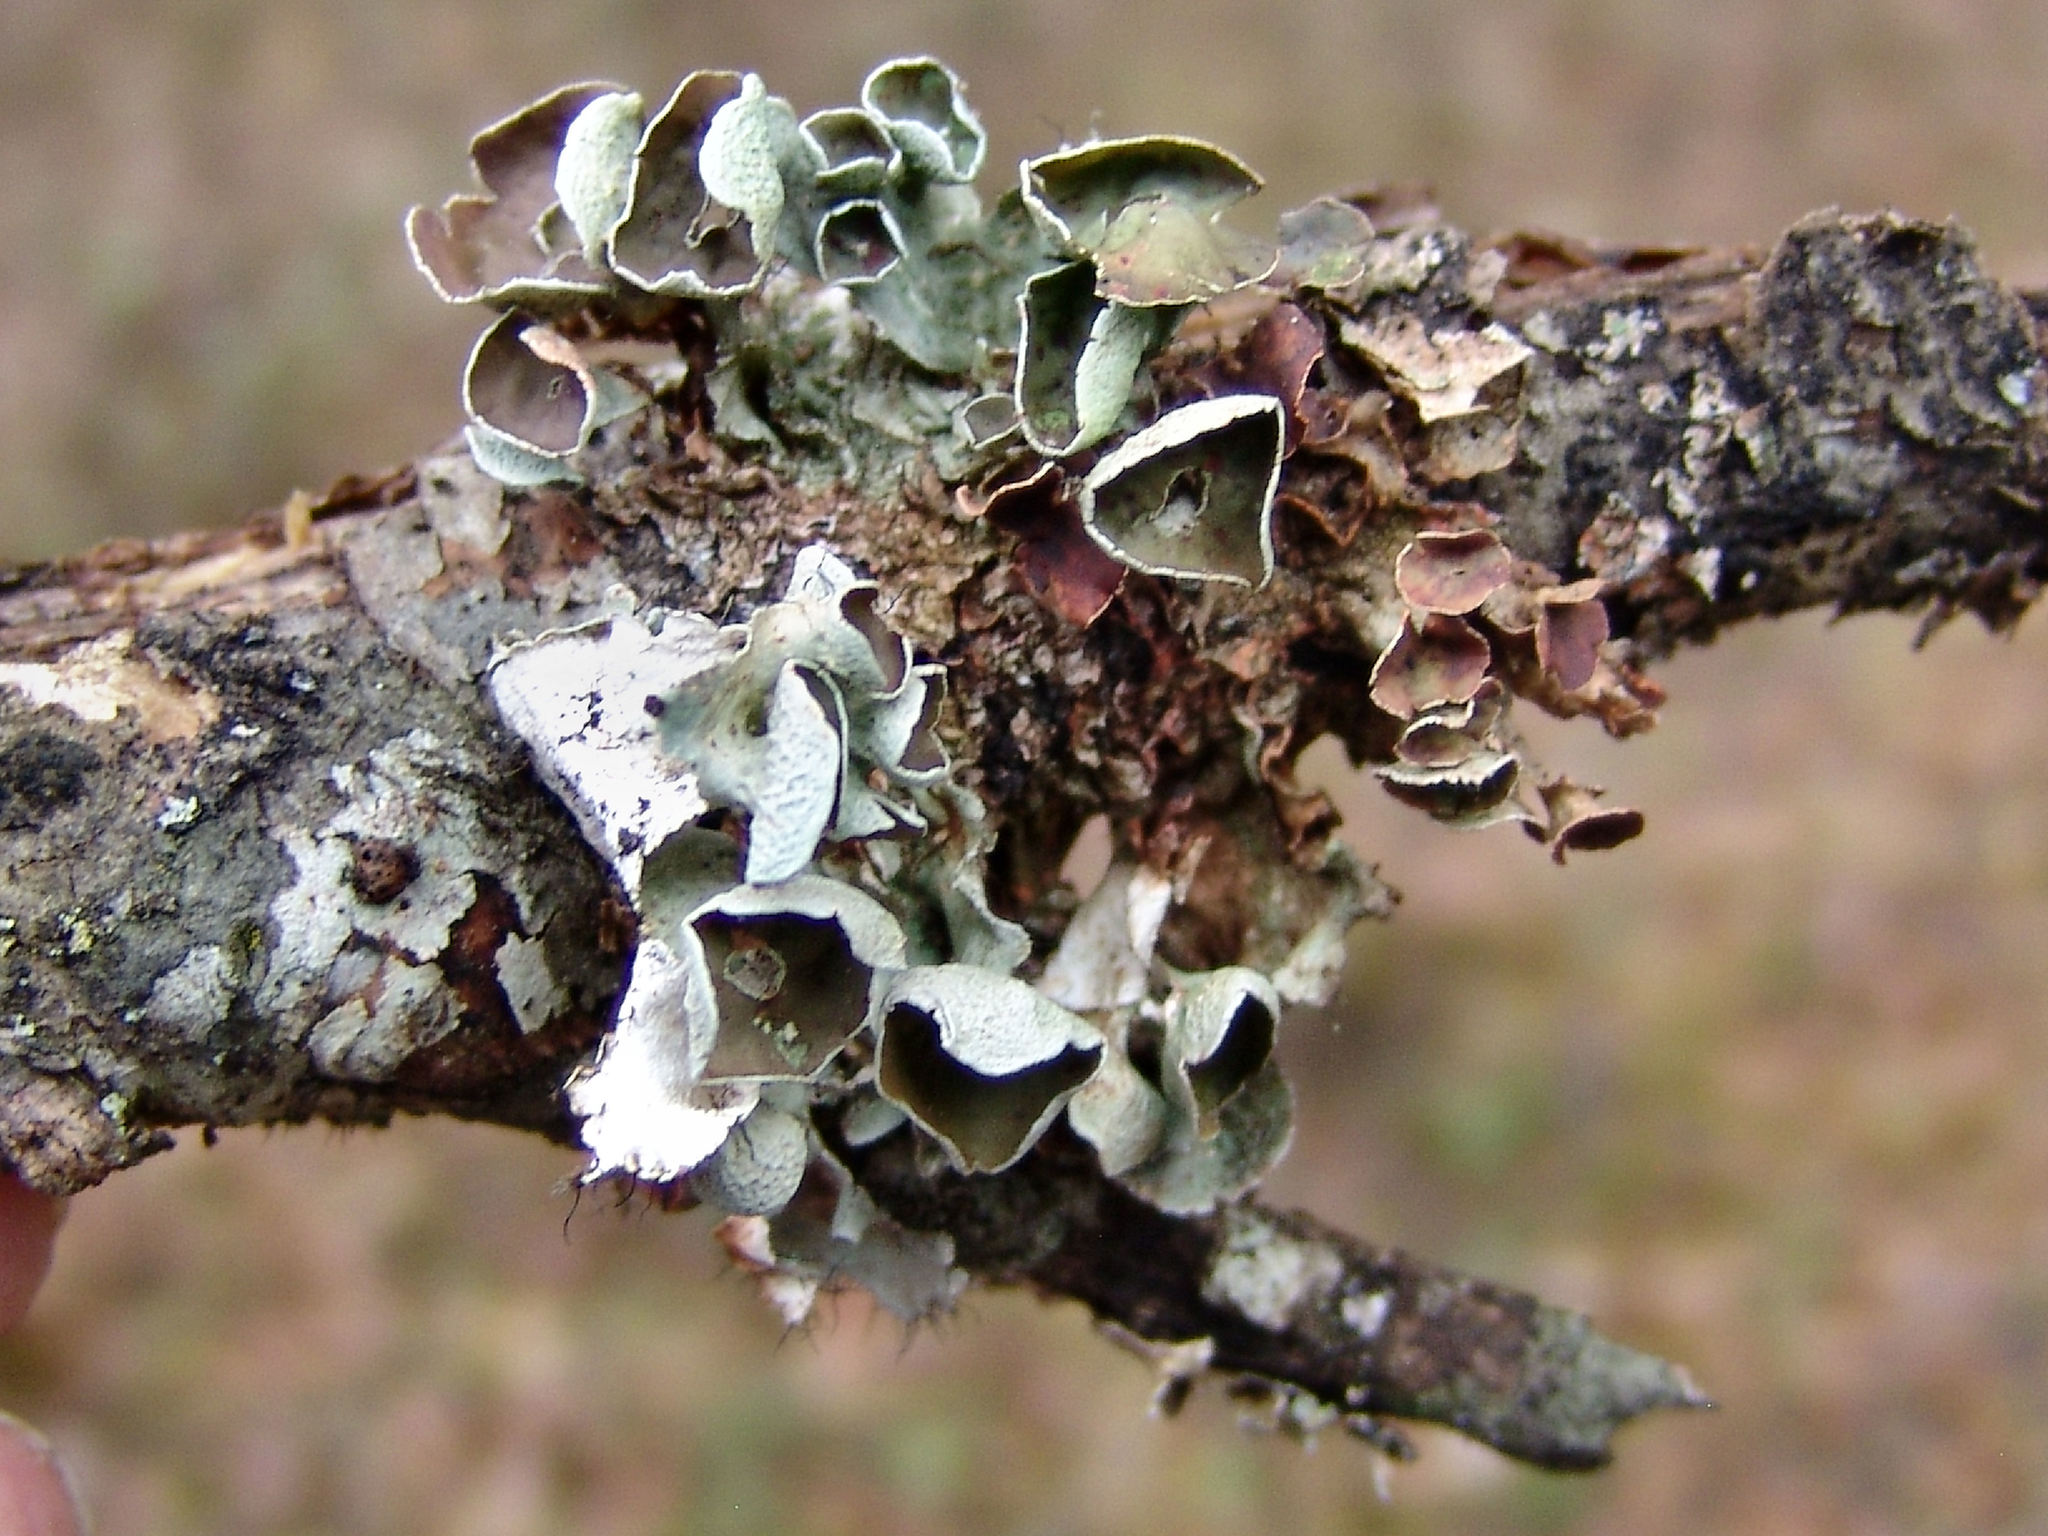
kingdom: Fungi
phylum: Ascomycota
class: Lecanoromycetes
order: Lecanorales
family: Parmeliaceae
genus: Parmotrema
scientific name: Parmotrema perforatum
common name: Perforated ruffle lichen
